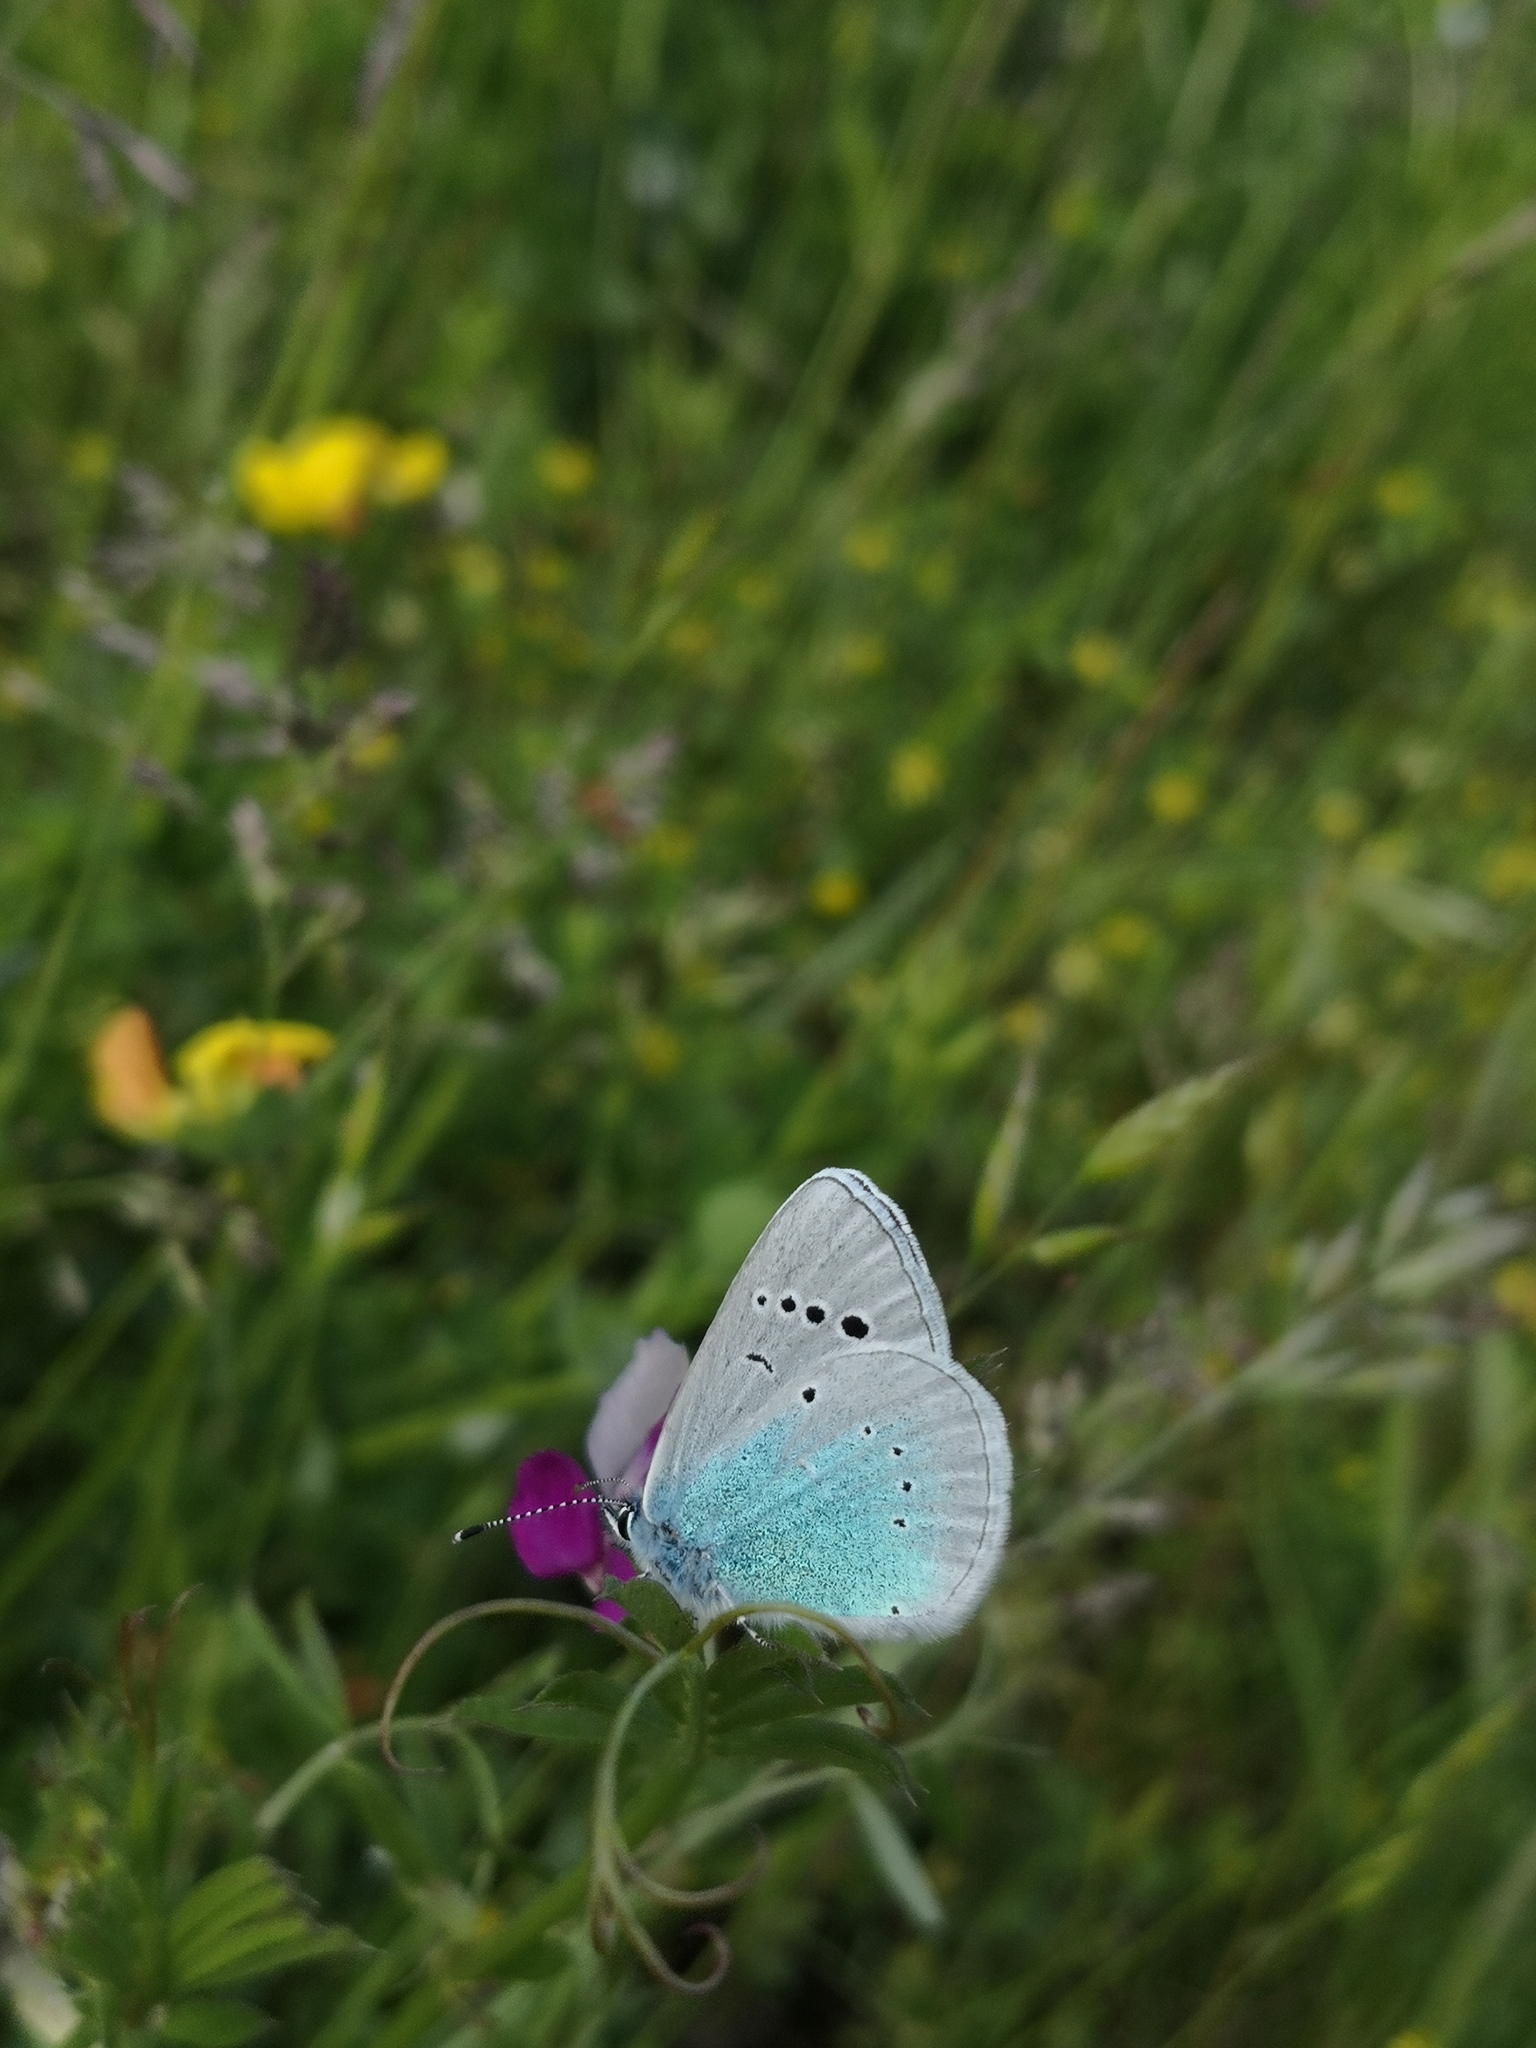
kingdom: Animalia
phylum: Arthropoda
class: Insecta
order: Lepidoptera
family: Lycaenidae
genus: Glaucopsyche
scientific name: Glaucopsyche alexis
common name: Green-underside blue
